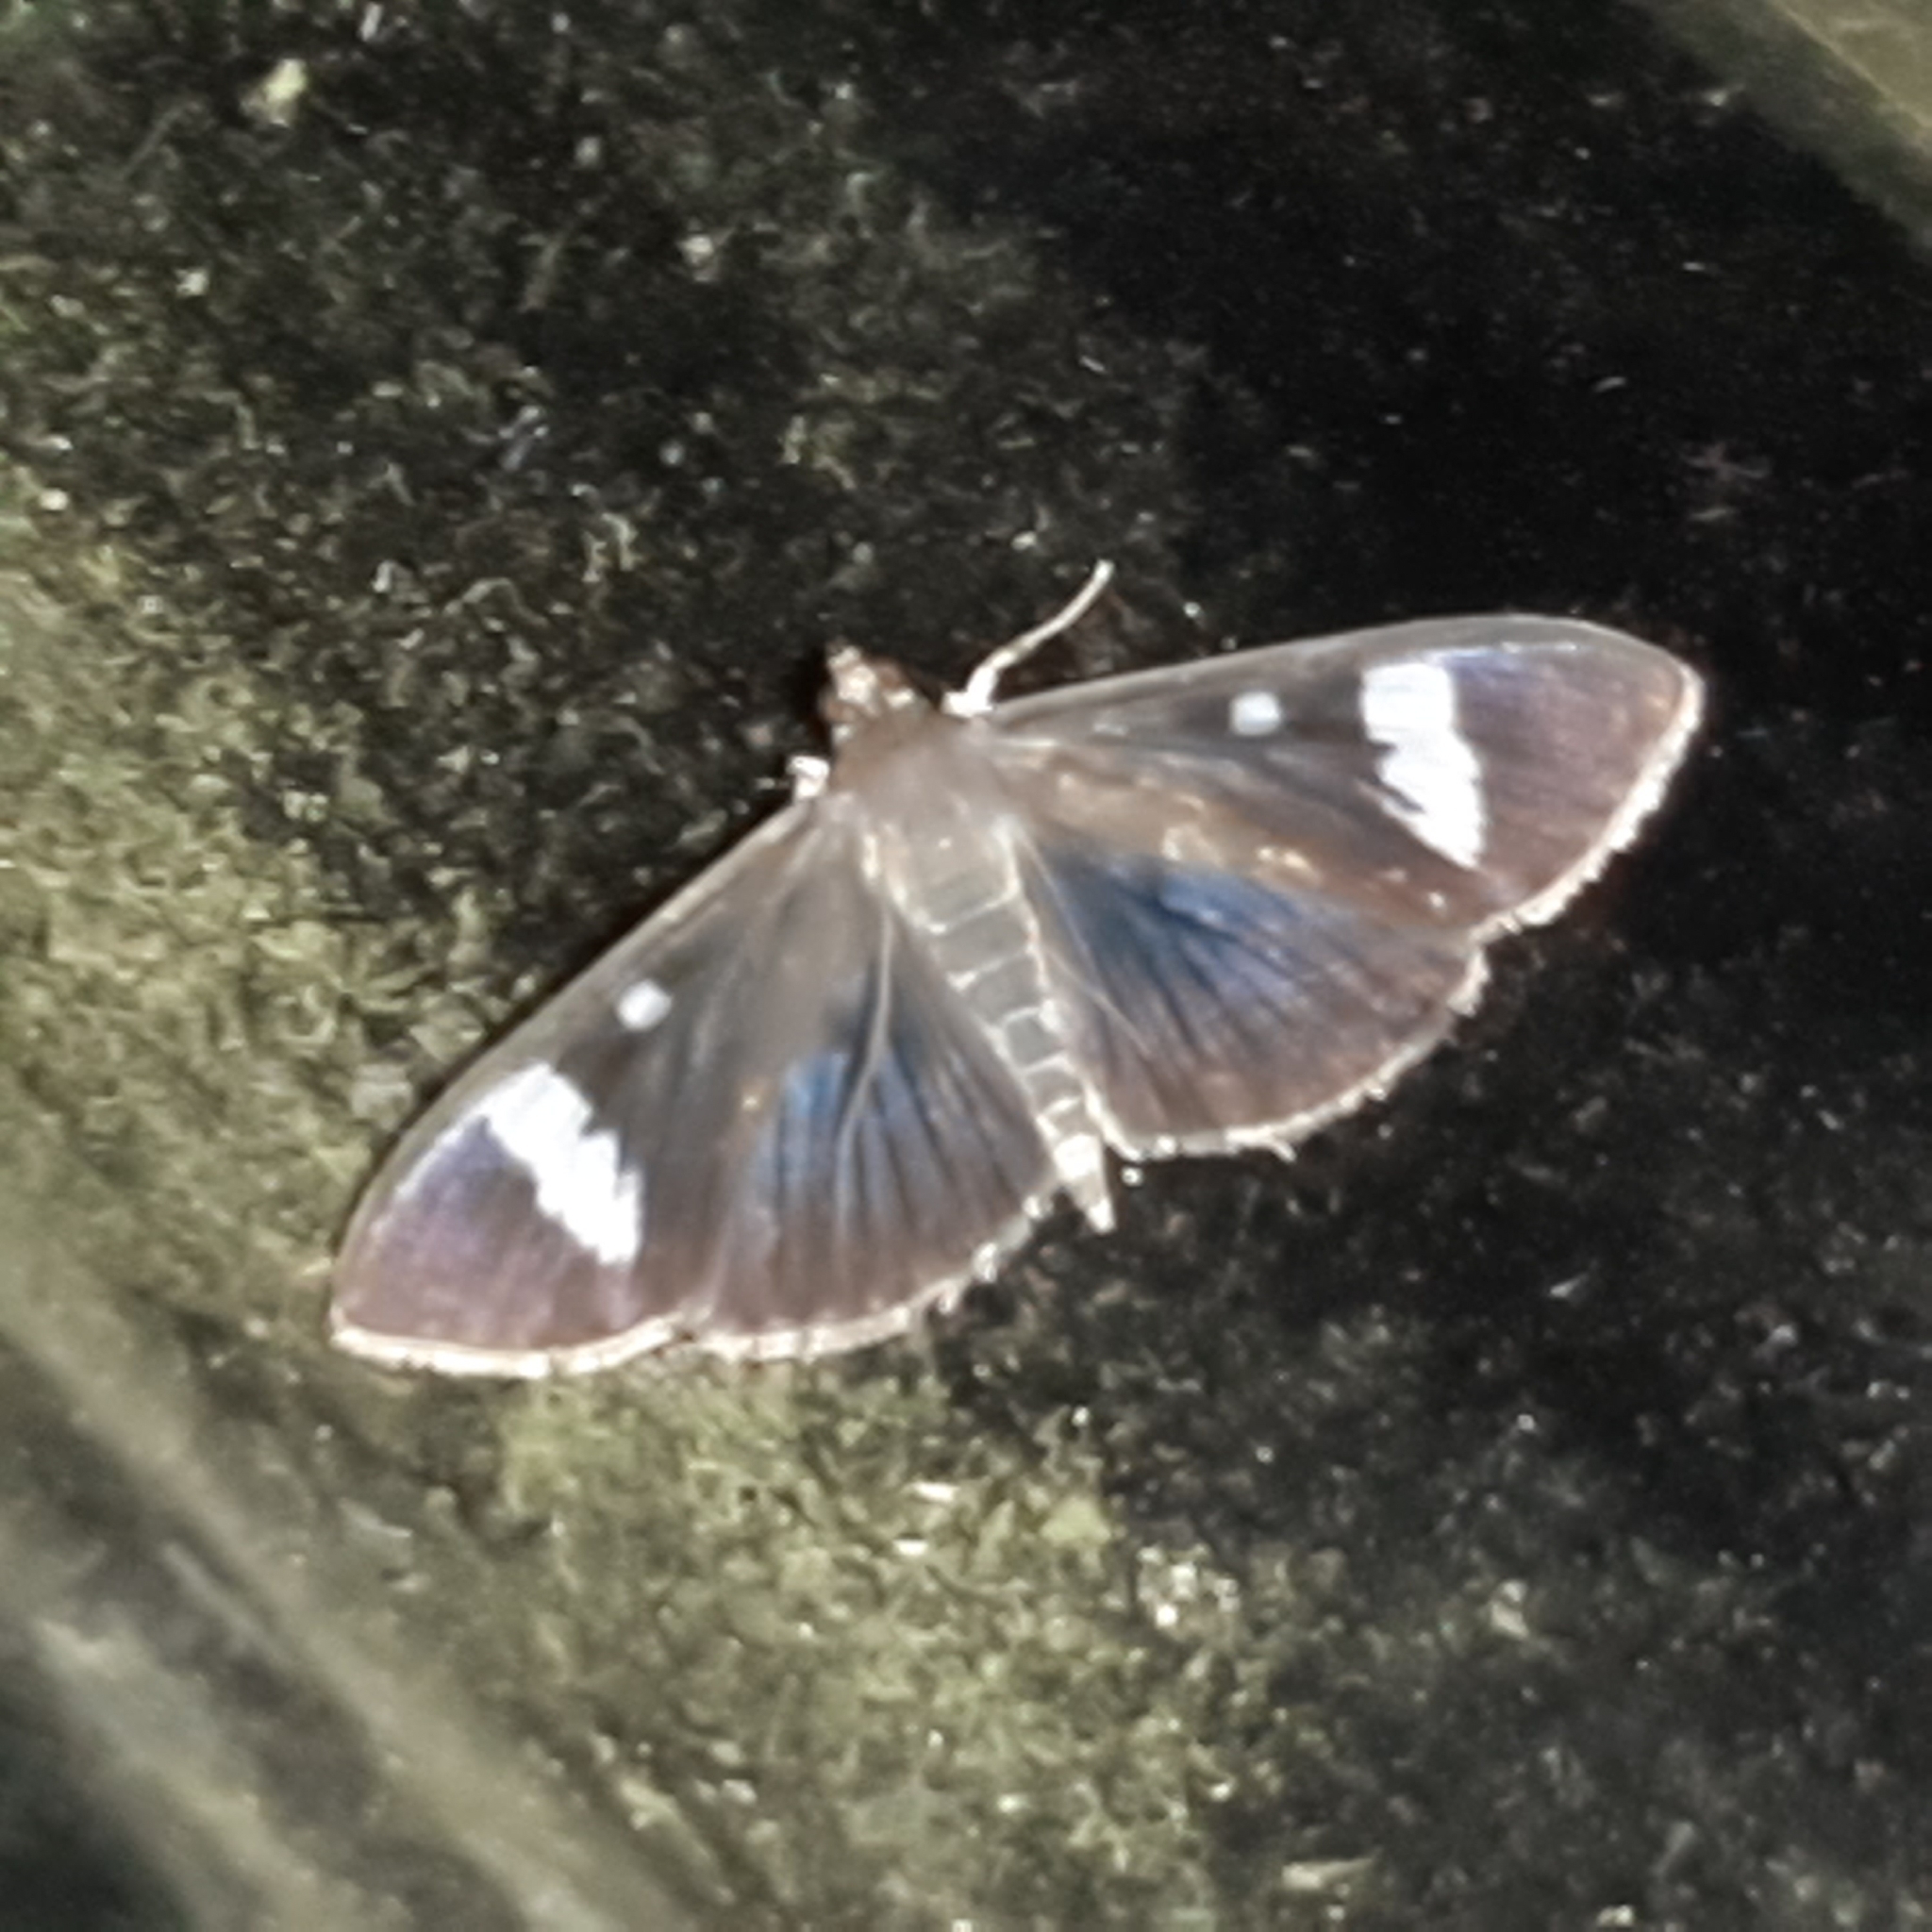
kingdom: Animalia
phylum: Arthropoda
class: Insecta
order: Lepidoptera
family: Crambidae
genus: Phostria
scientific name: Phostria Erilusa leucoplagialis
